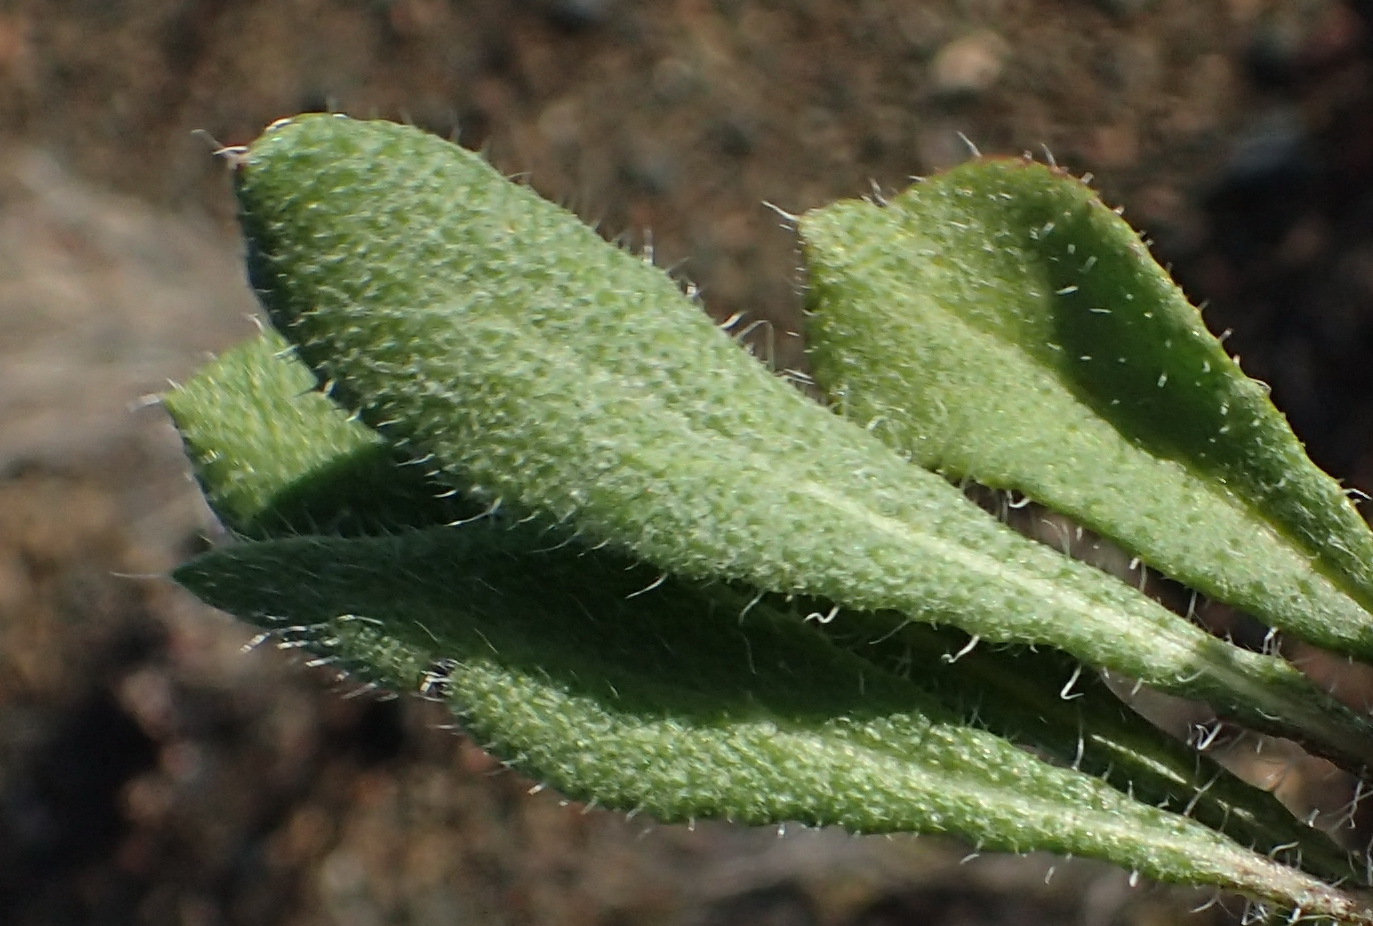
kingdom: Plantae
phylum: Tracheophyta
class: Magnoliopsida
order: Asterales
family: Asteraceae
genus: Gazania
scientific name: Gazania heterochaeta
